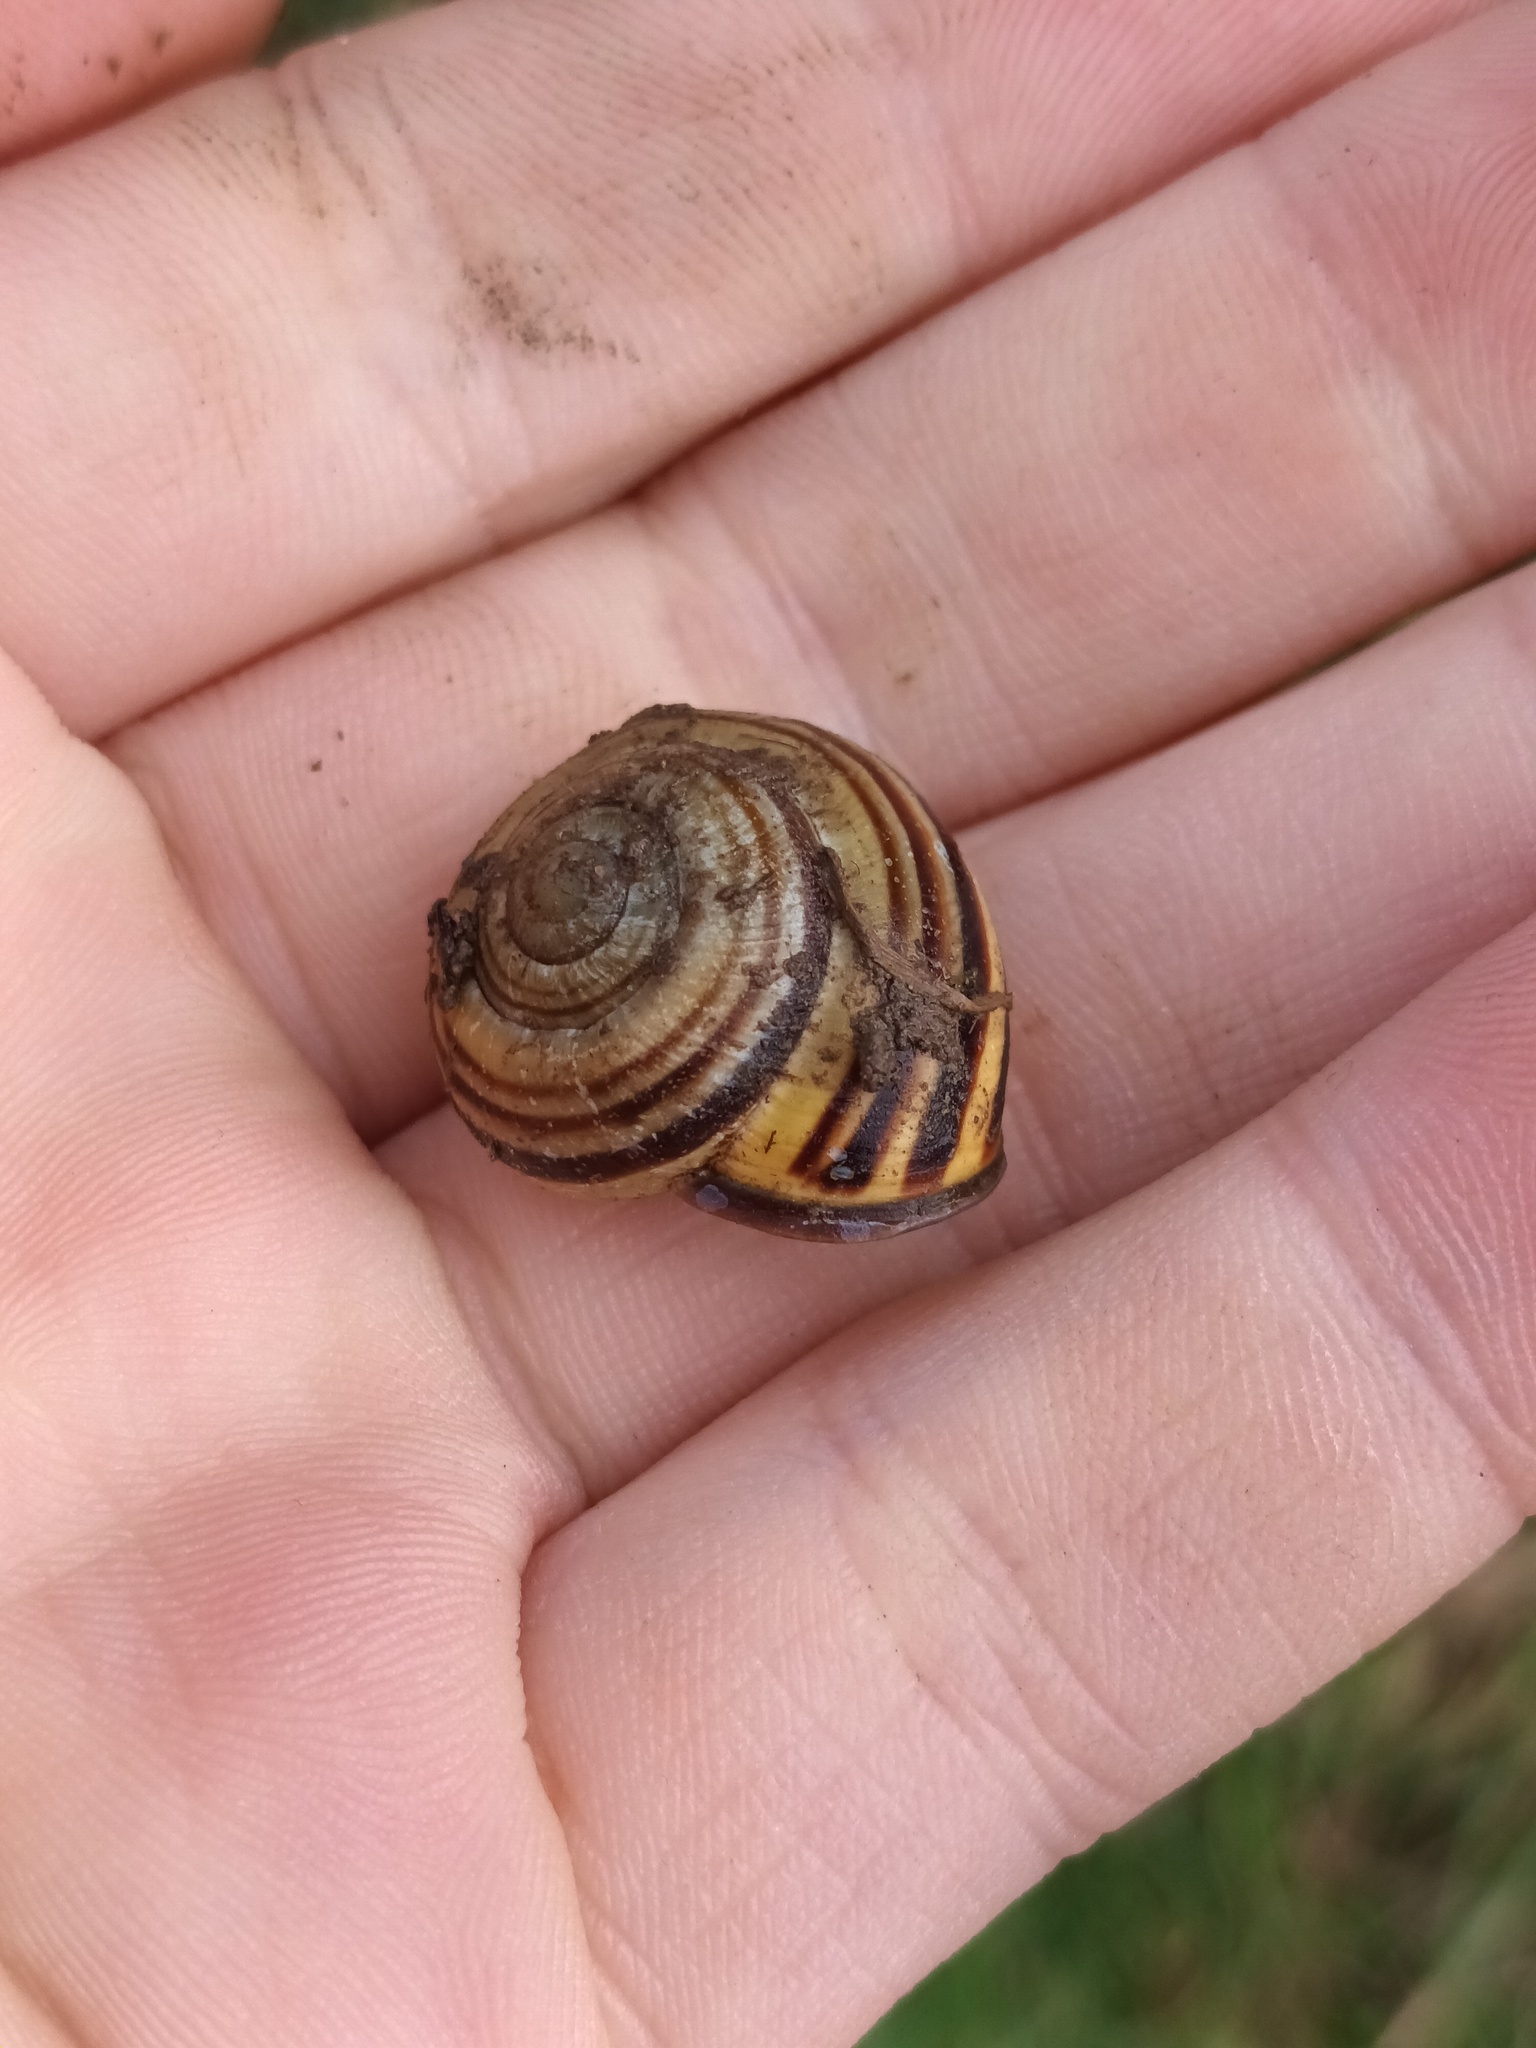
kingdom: Animalia
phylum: Mollusca
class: Gastropoda
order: Stylommatophora
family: Helicidae
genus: Cepaea
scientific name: Cepaea nemoralis
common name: Grovesnail
